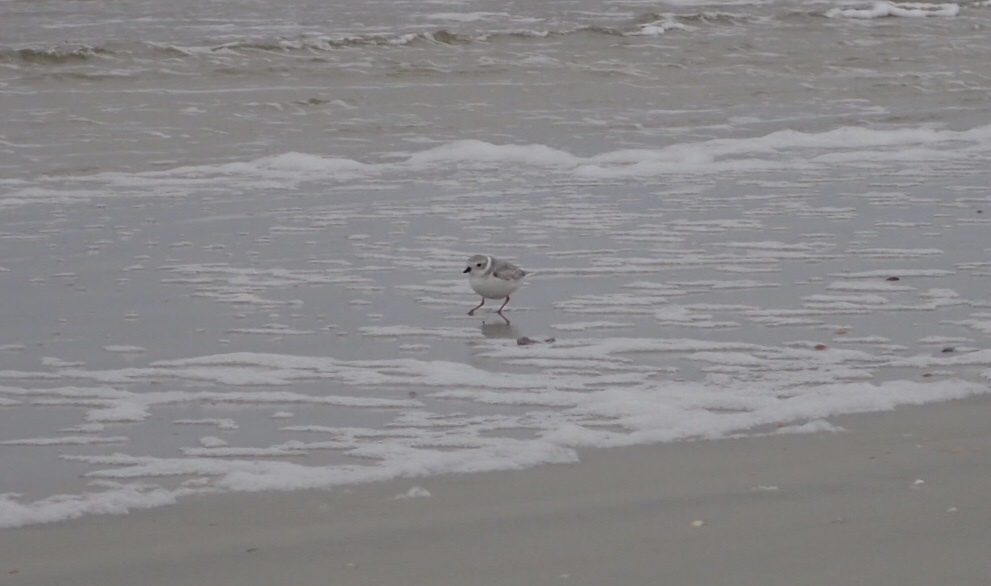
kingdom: Animalia
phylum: Chordata
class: Aves
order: Charadriiformes
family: Charadriidae
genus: Charadrius
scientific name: Charadrius melodus
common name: Piping plover
